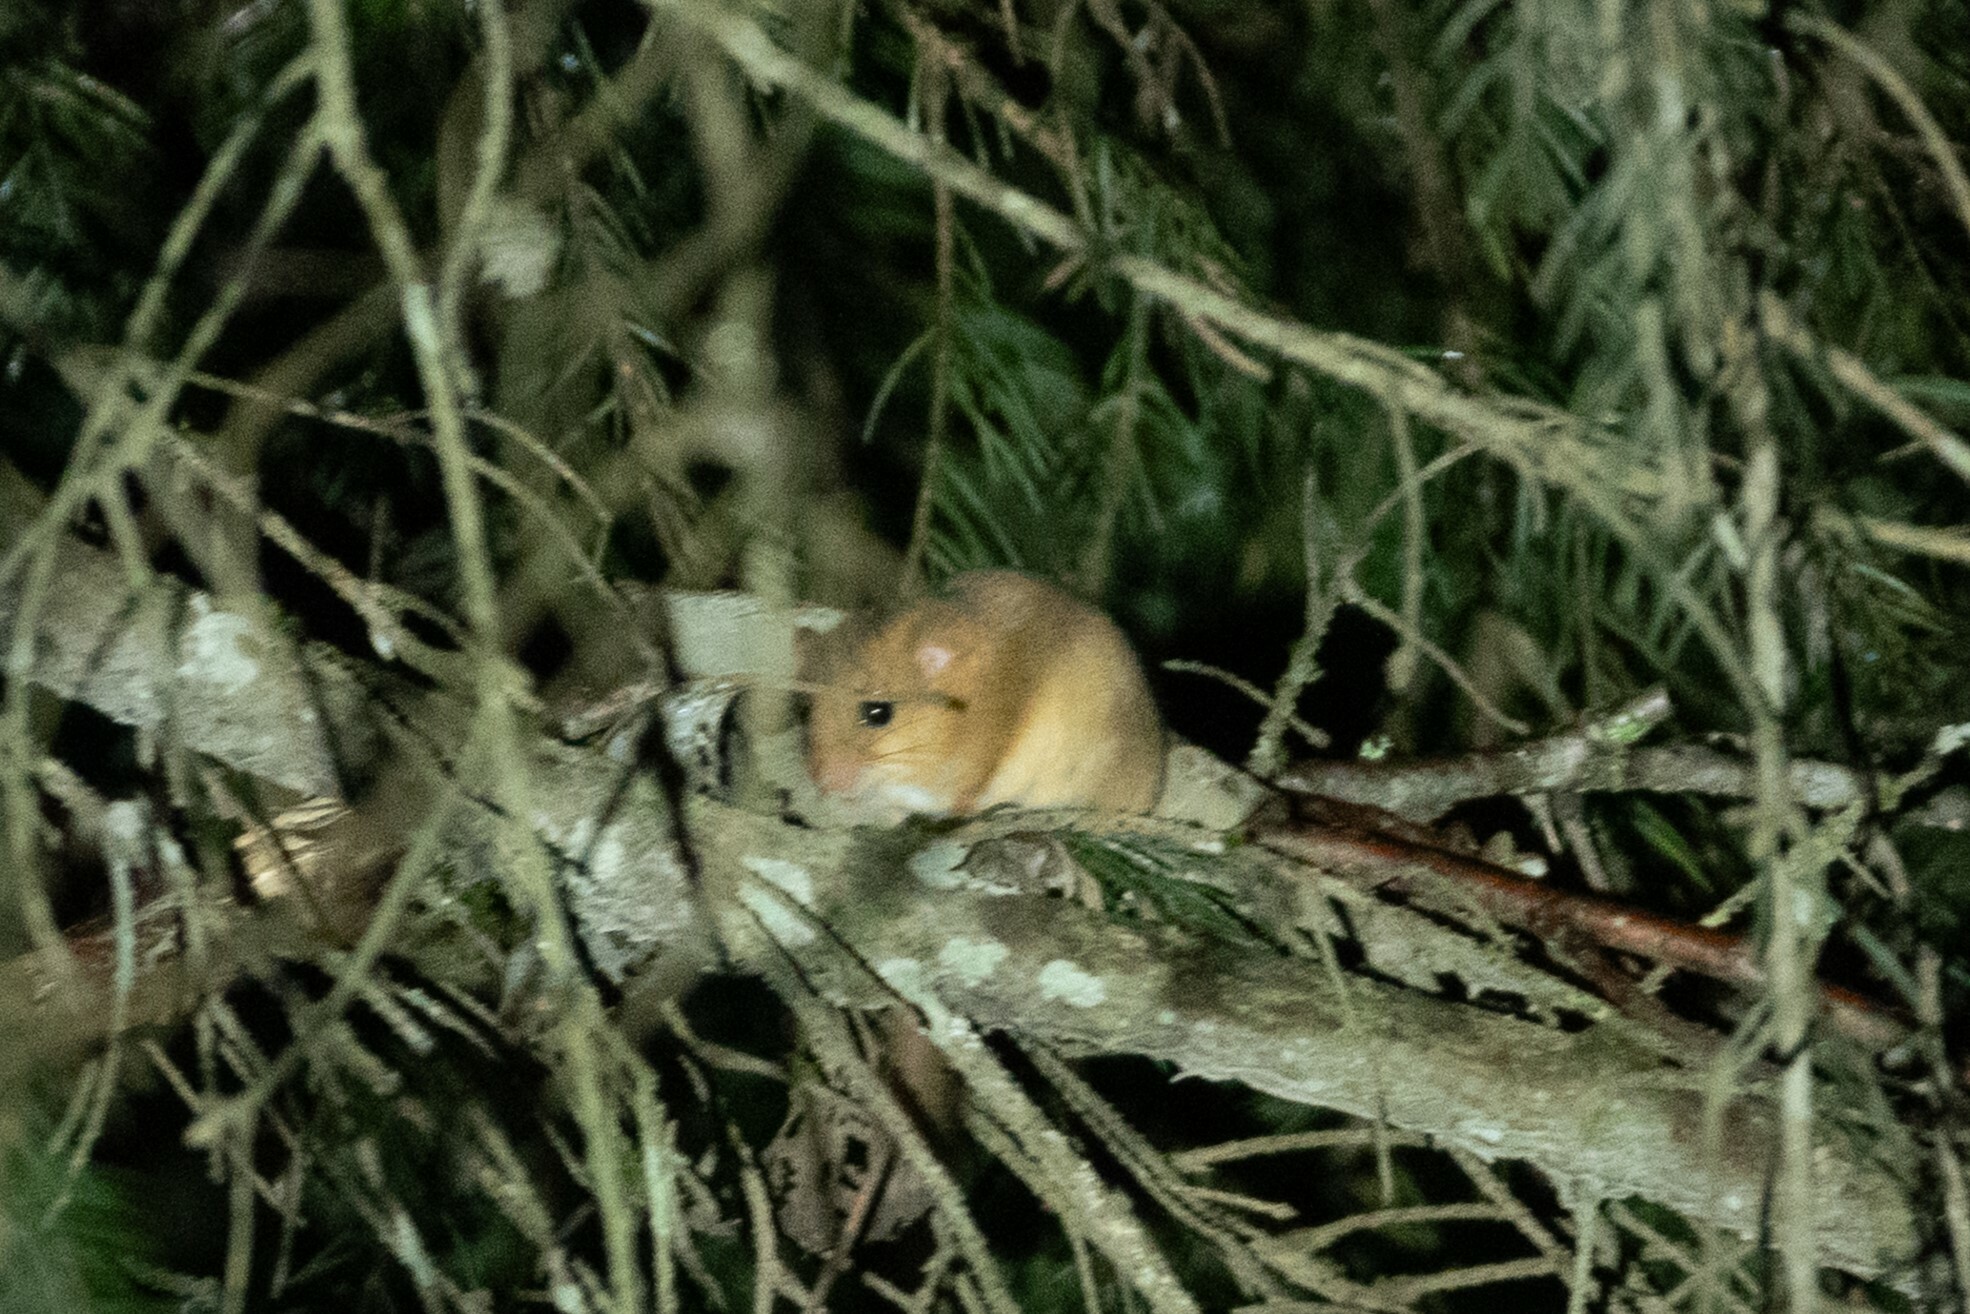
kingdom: Animalia
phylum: Chordata
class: Mammalia
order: Rodentia
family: Gliridae
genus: Muscardinus
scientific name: Muscardinus avellanarius
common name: Hazel dormouse
